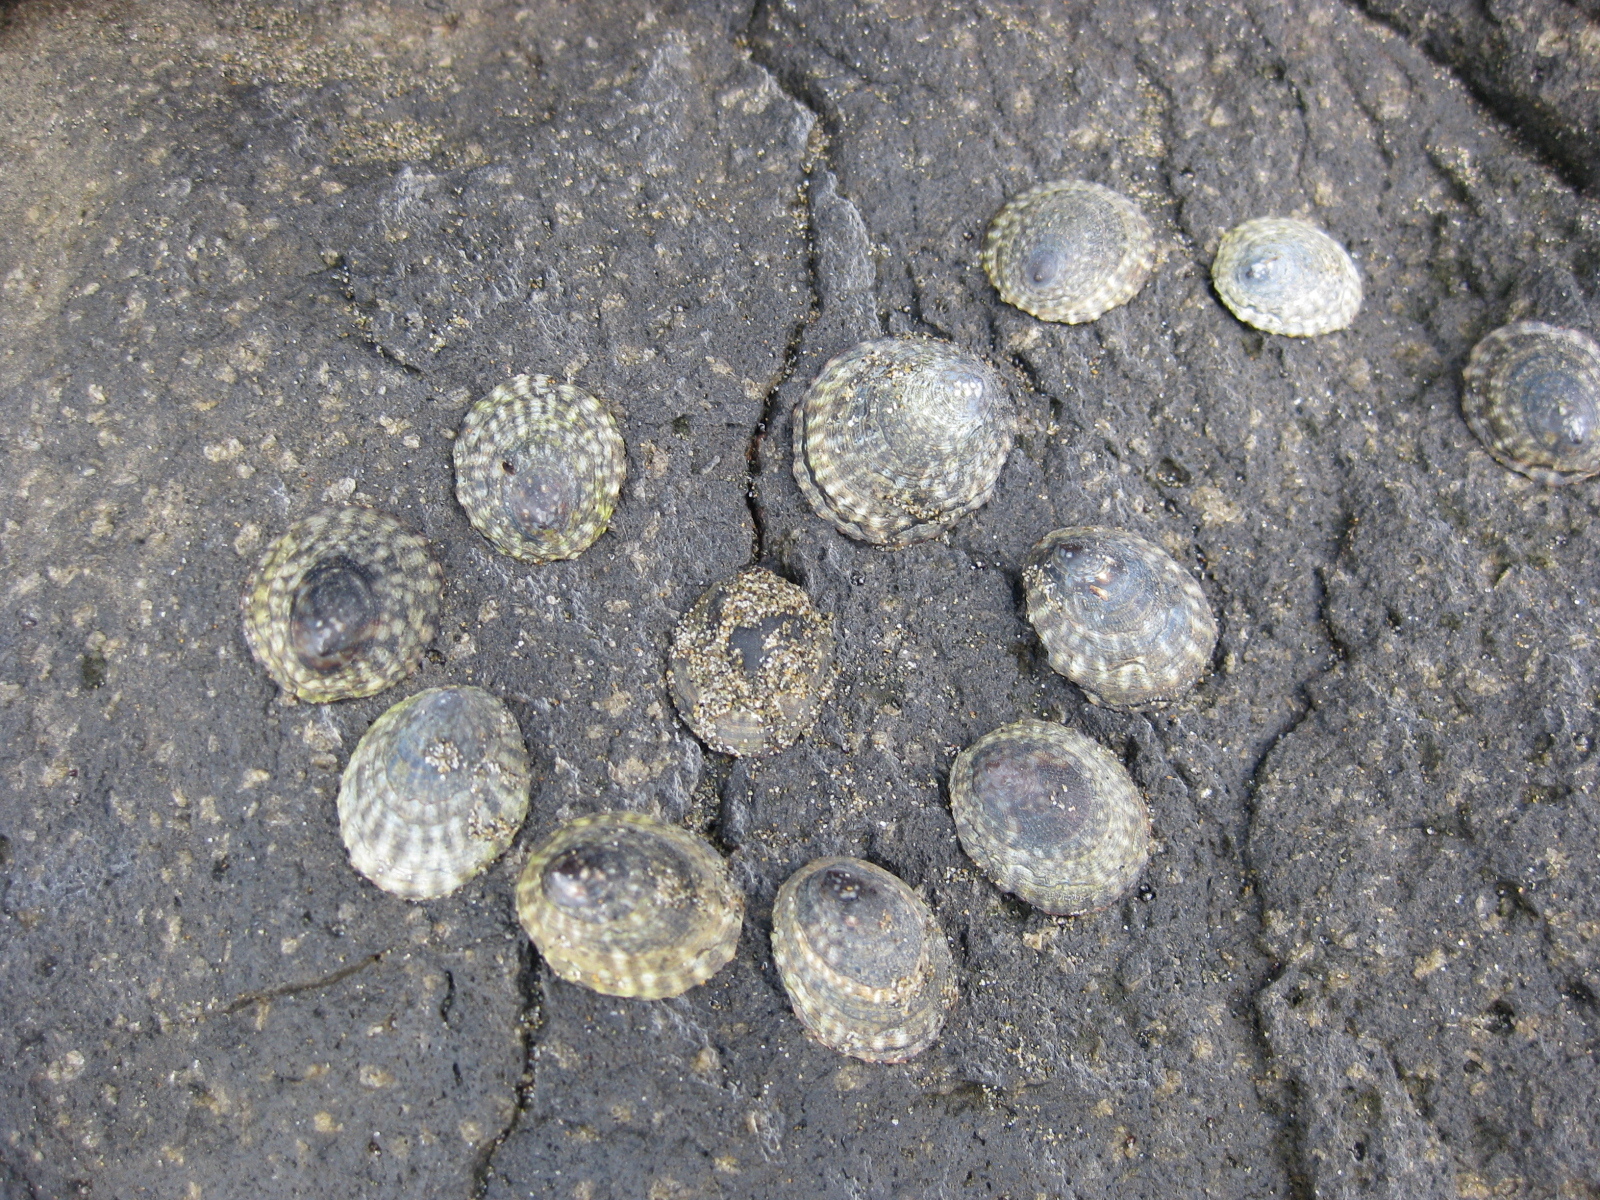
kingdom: Animalia
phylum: Mollusca
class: Gastropoda
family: Lottiidae
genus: Notoacmea
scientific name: Notoacmea pileopsis
